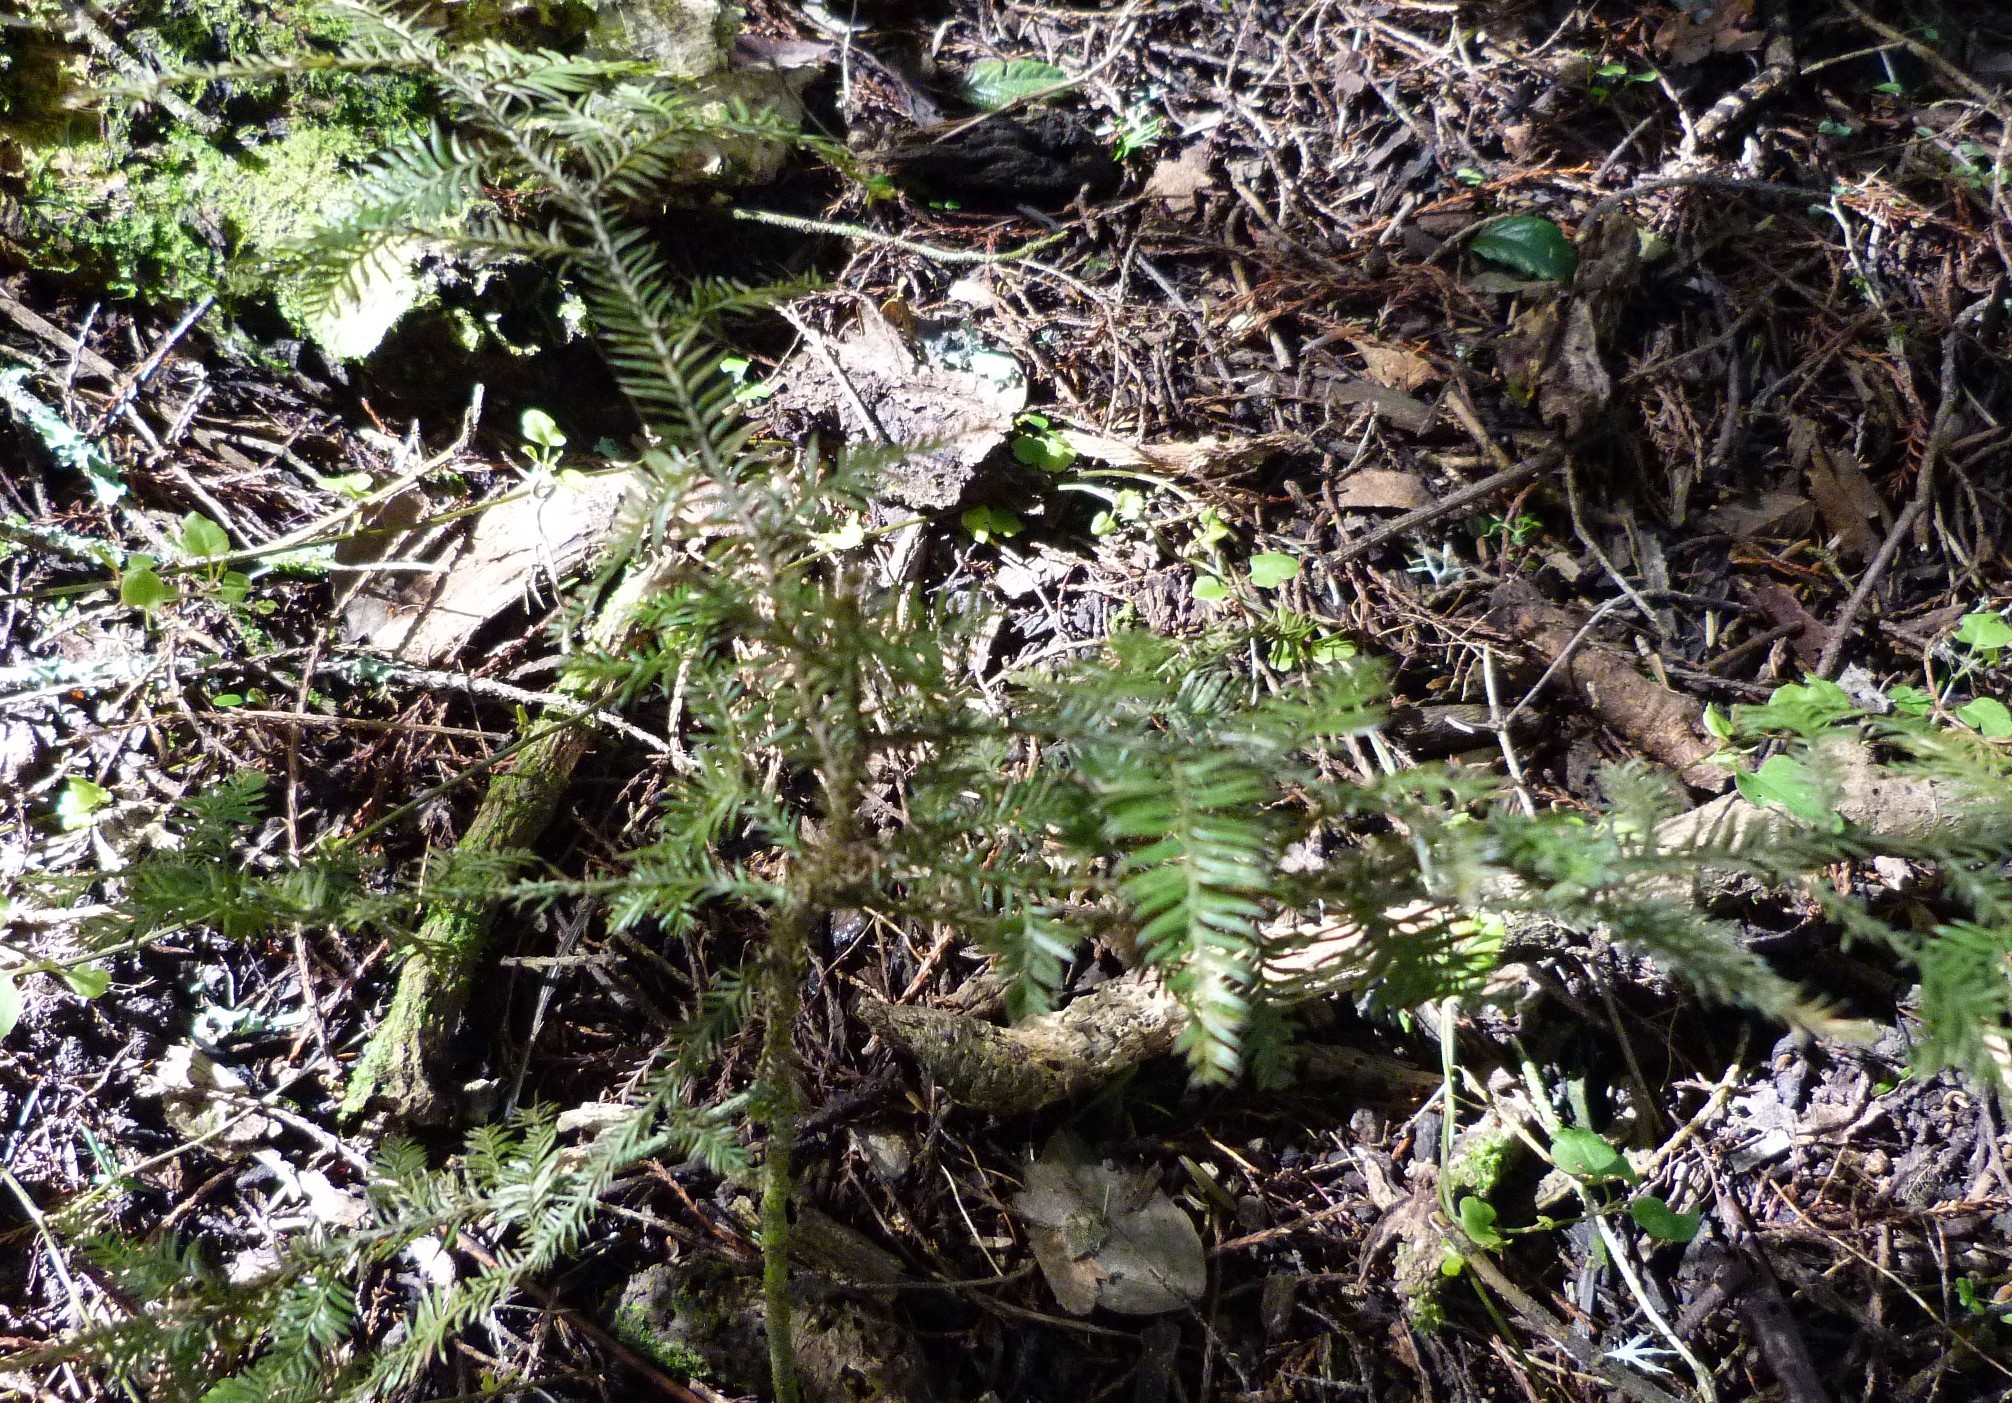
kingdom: Plantae
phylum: Tracheophyta
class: Pinopsida
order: Pinales
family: Podocarpaceae
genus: Dacrycarpus
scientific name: Dacrycarpus dacrydioides
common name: White pine
